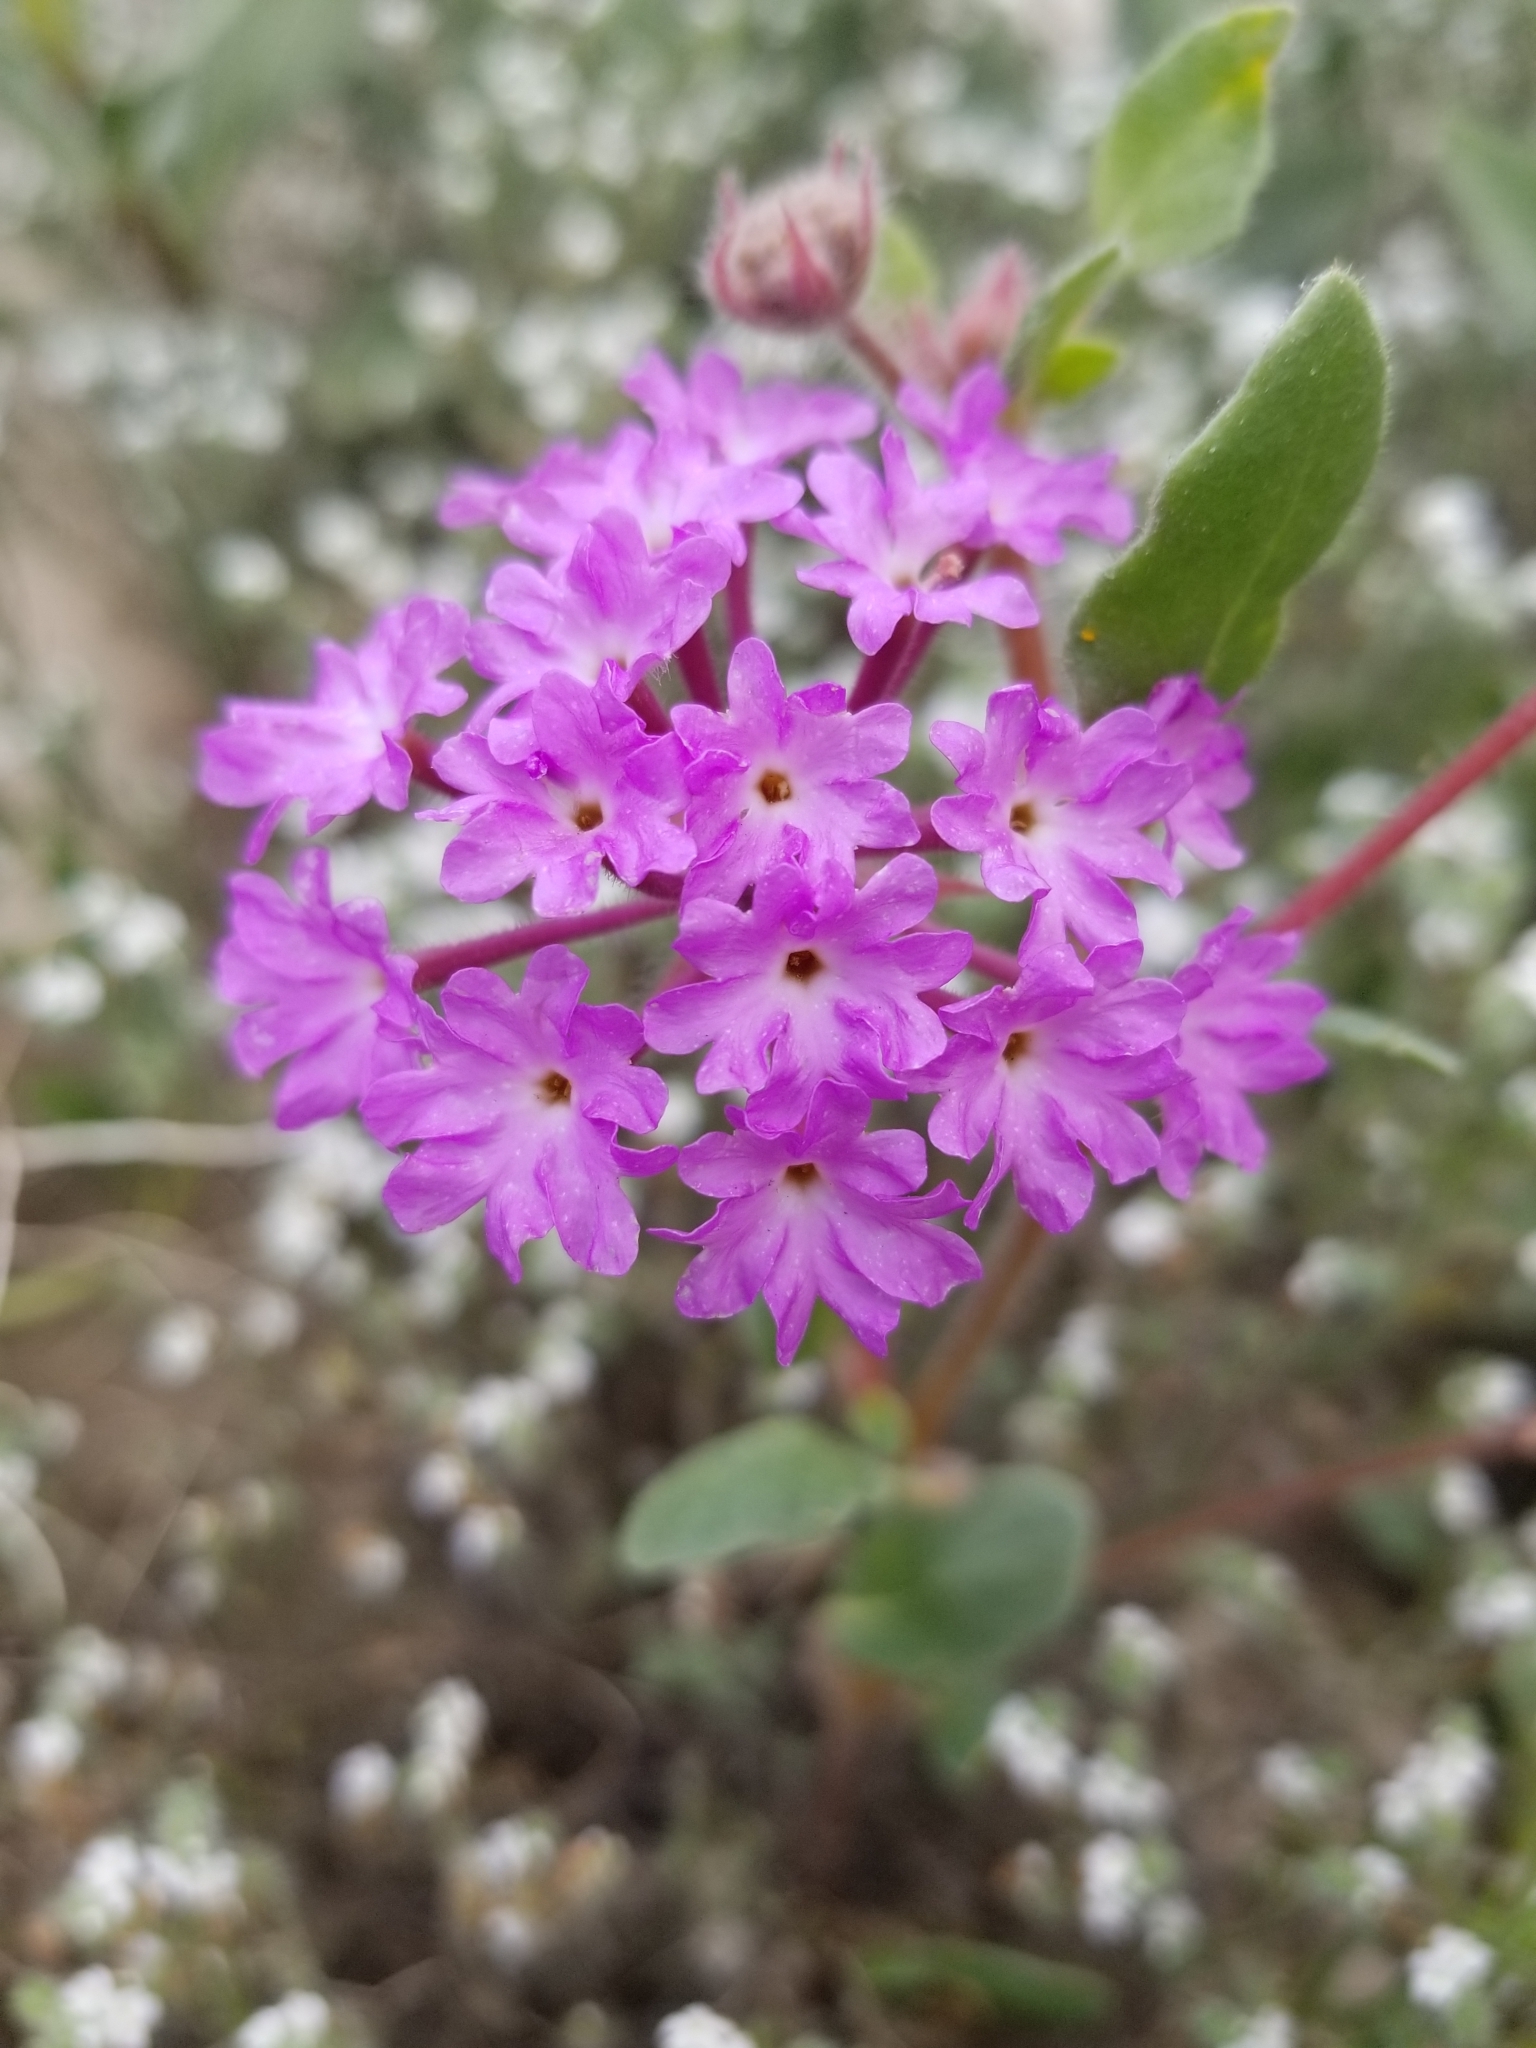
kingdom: Plantae
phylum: Tracheophyta
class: Magnoliopsida
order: Caryophyllales
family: Nyctaginaceae
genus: Abronia
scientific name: Abronia villosa
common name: Desert sand-verbena
